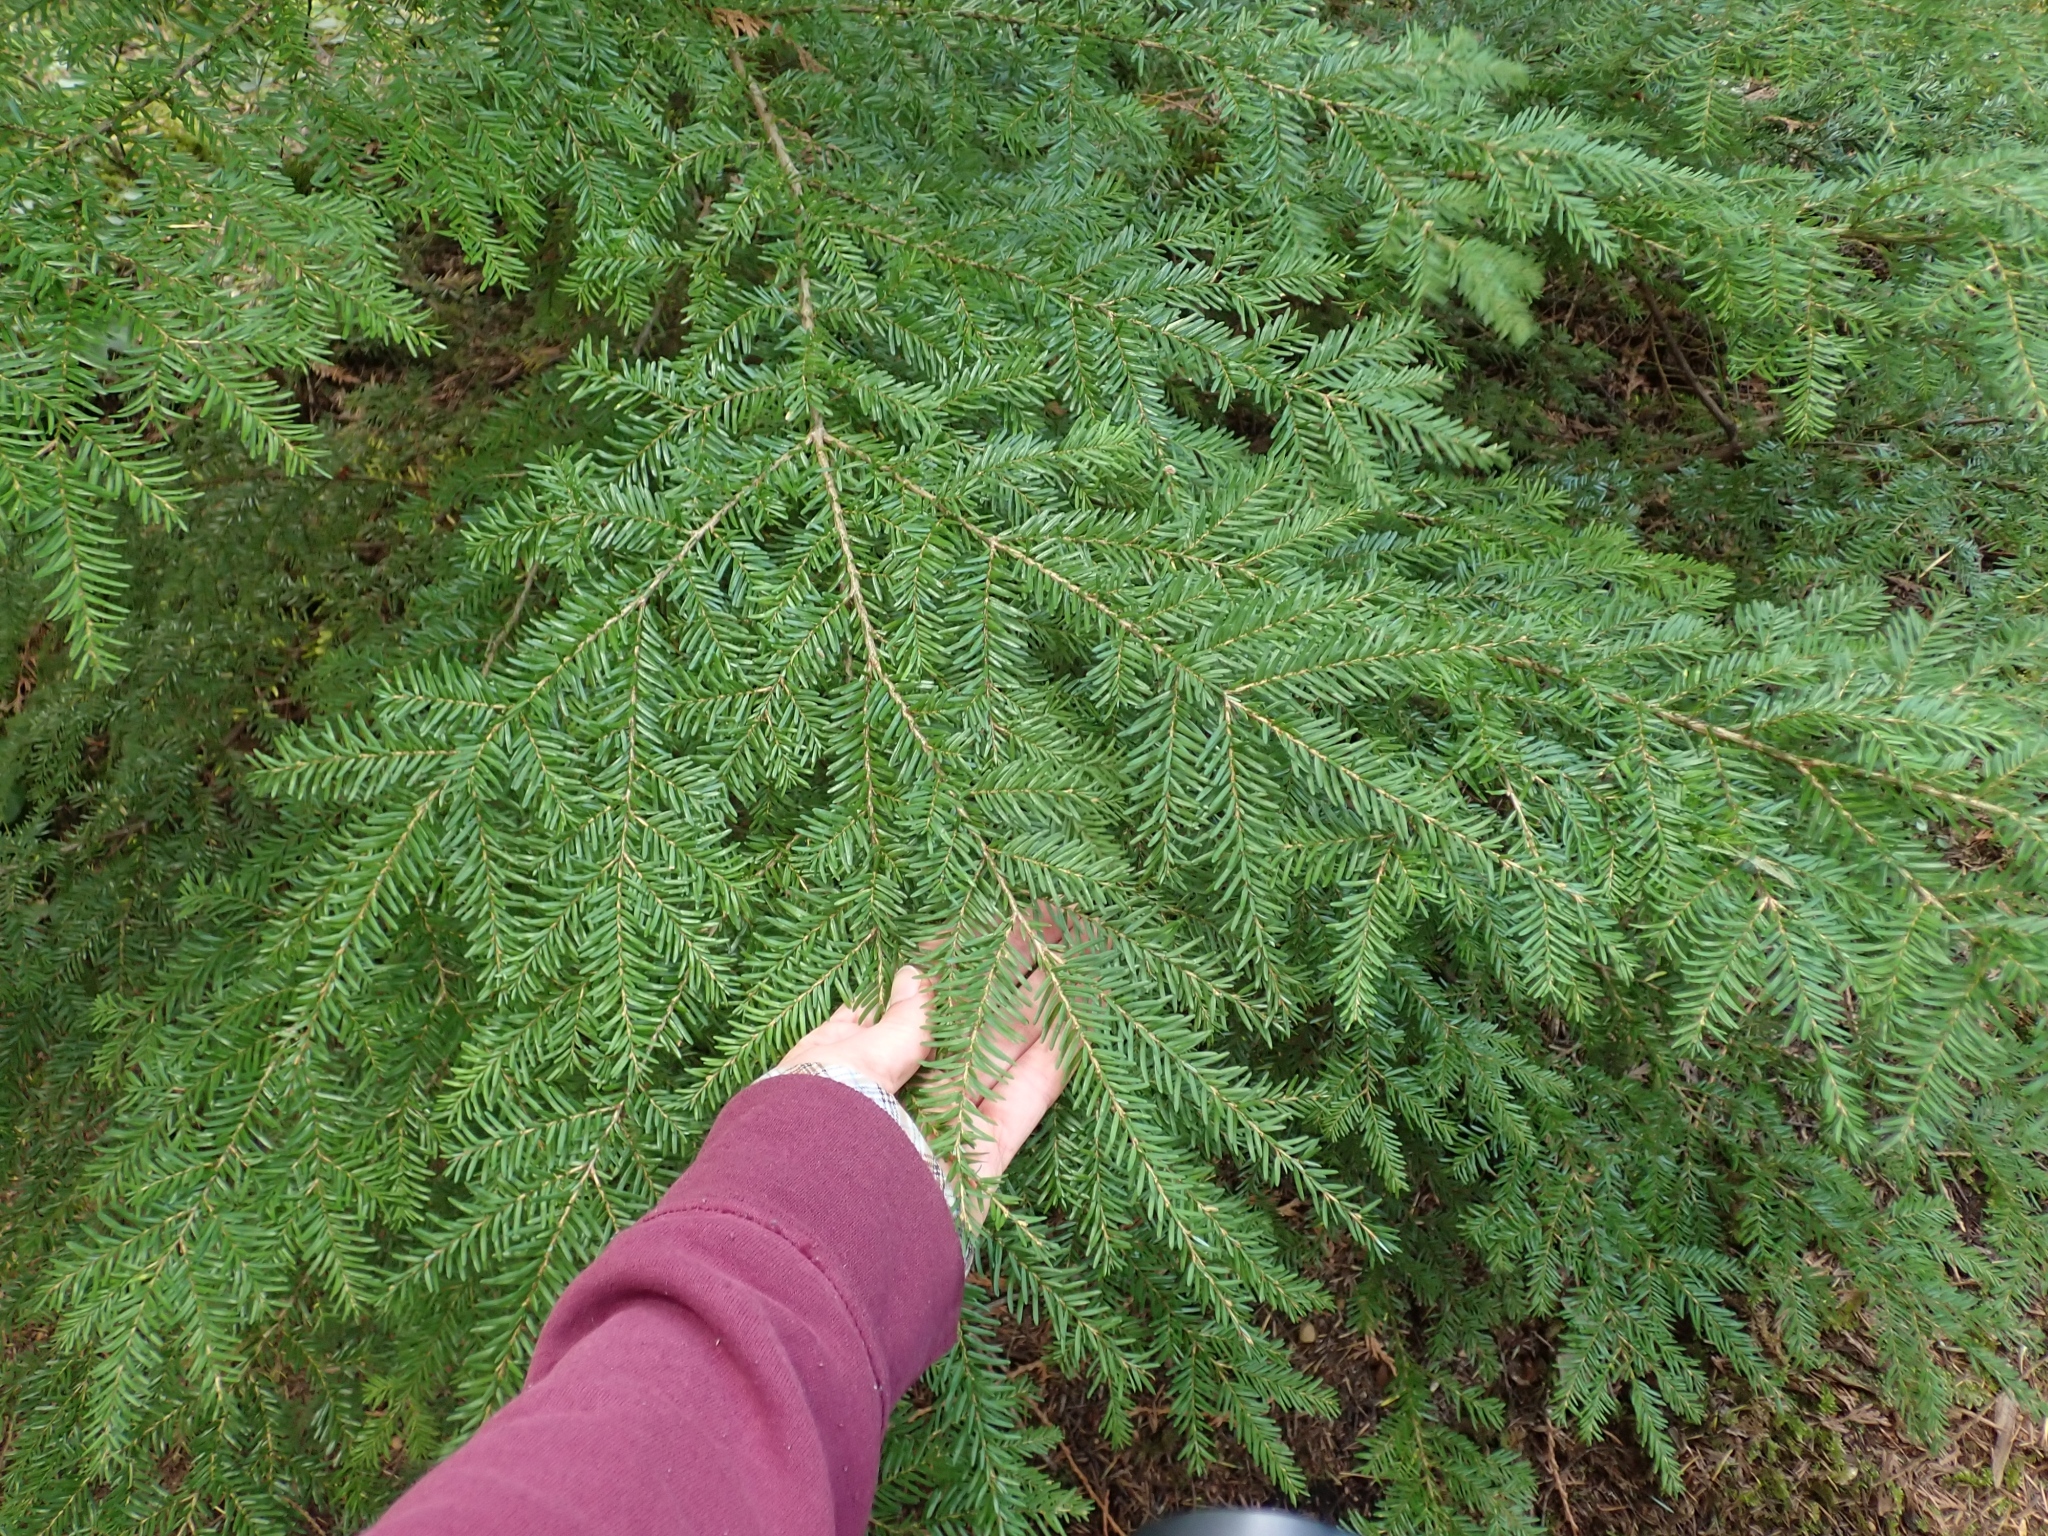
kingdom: Plantae
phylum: Tracheophyta
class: Pinopsida
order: Pinales
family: Pinaceae
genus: Tsuga
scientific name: Tsuga heterophylla
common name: Western hemlock
